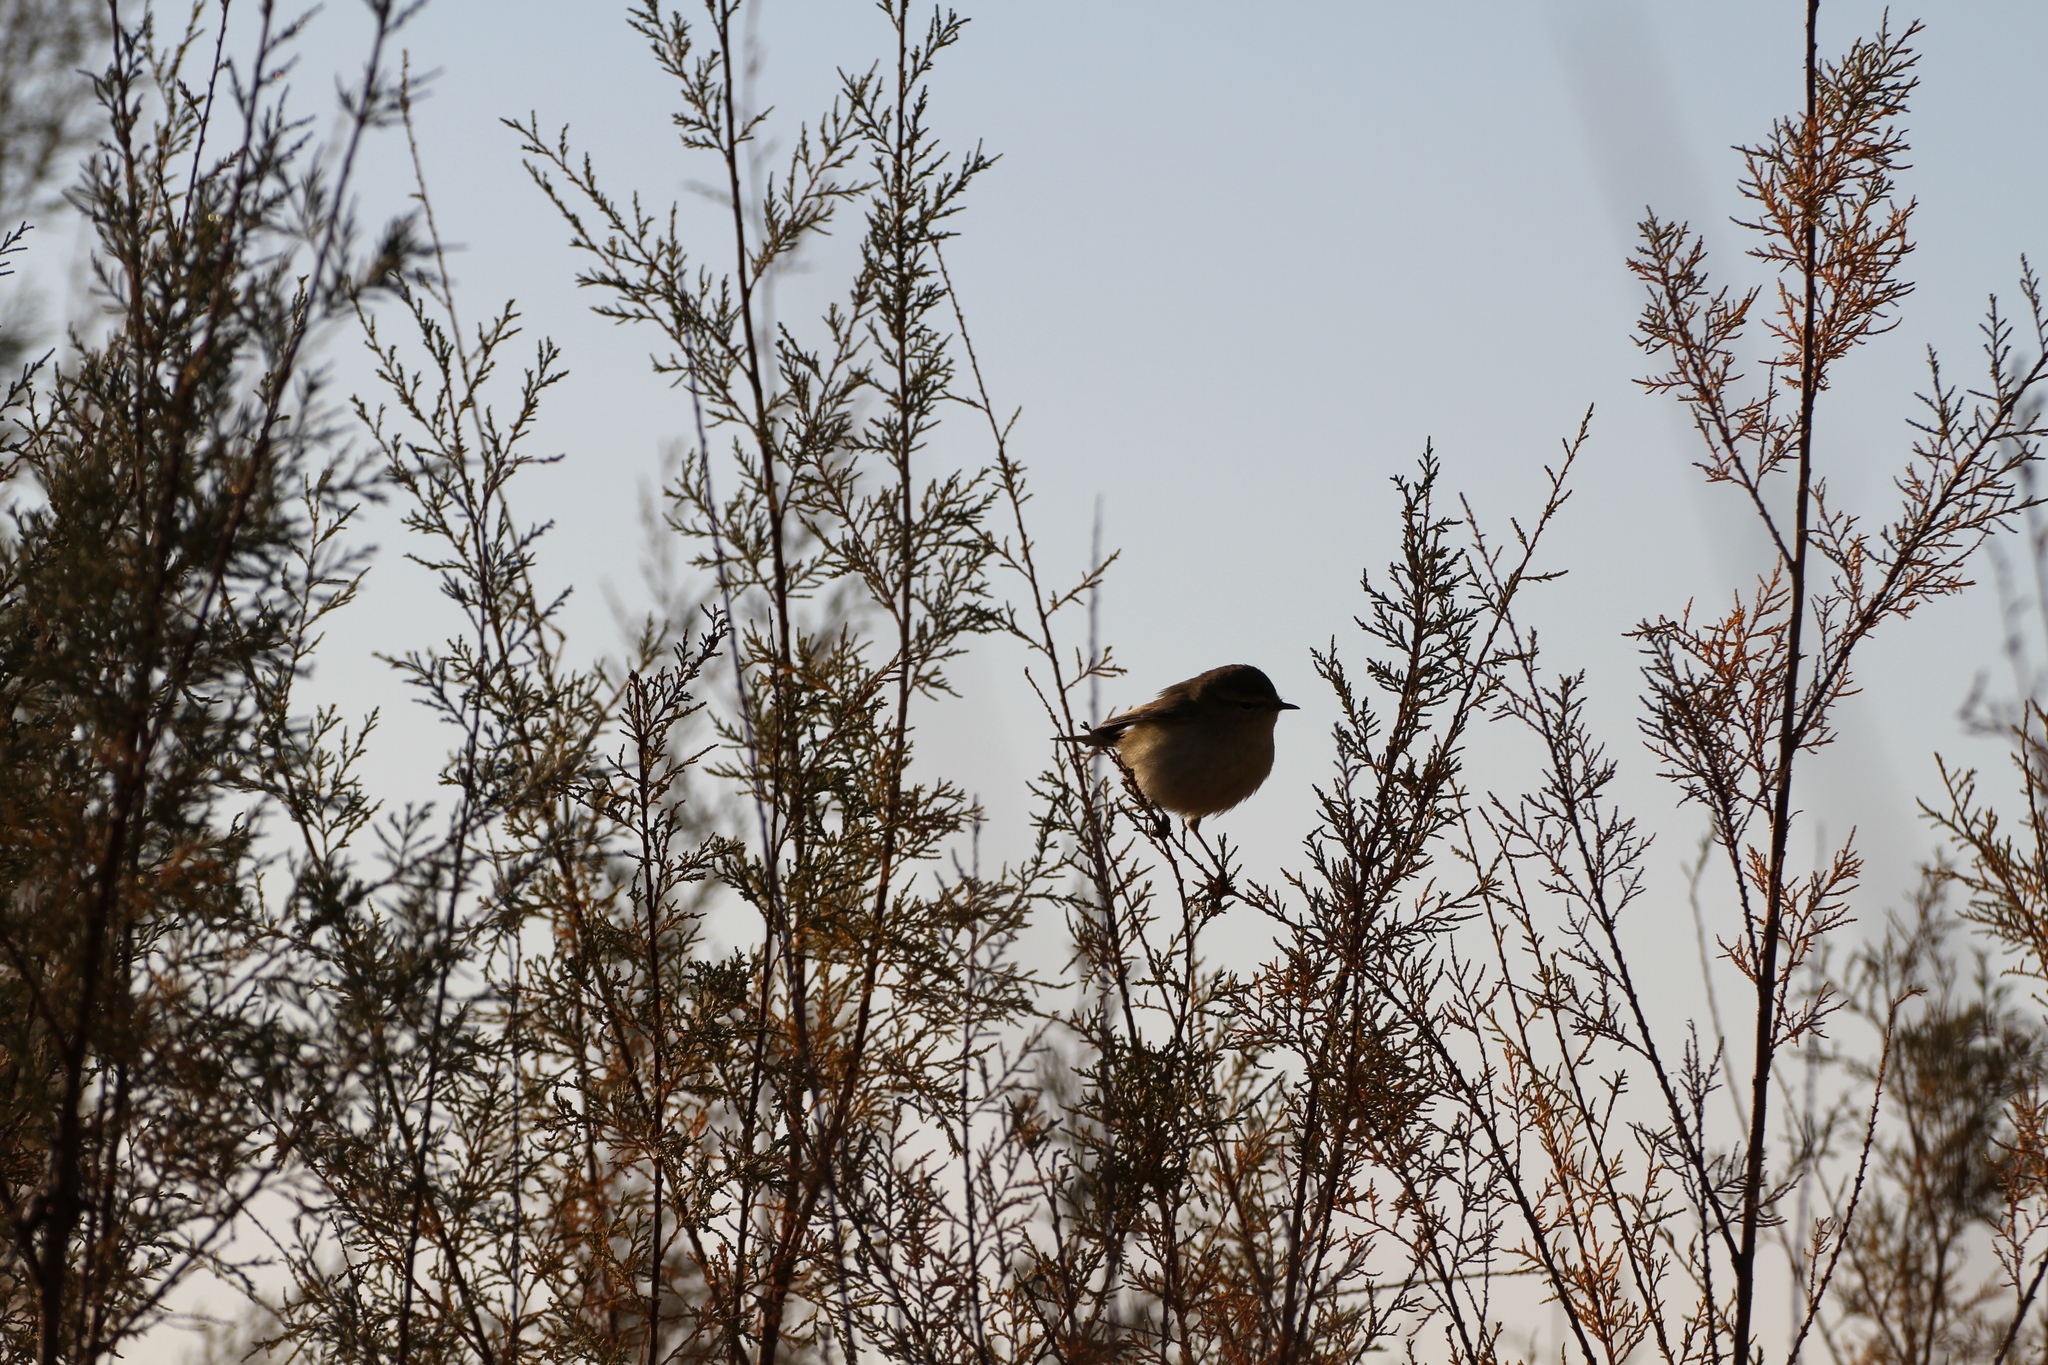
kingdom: Animalia
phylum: Chordata
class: Aves
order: Passeriformes
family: Phylloscopidae
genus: Phylloscopus
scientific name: Phylloscopus collybita
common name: Common chiffchaff
